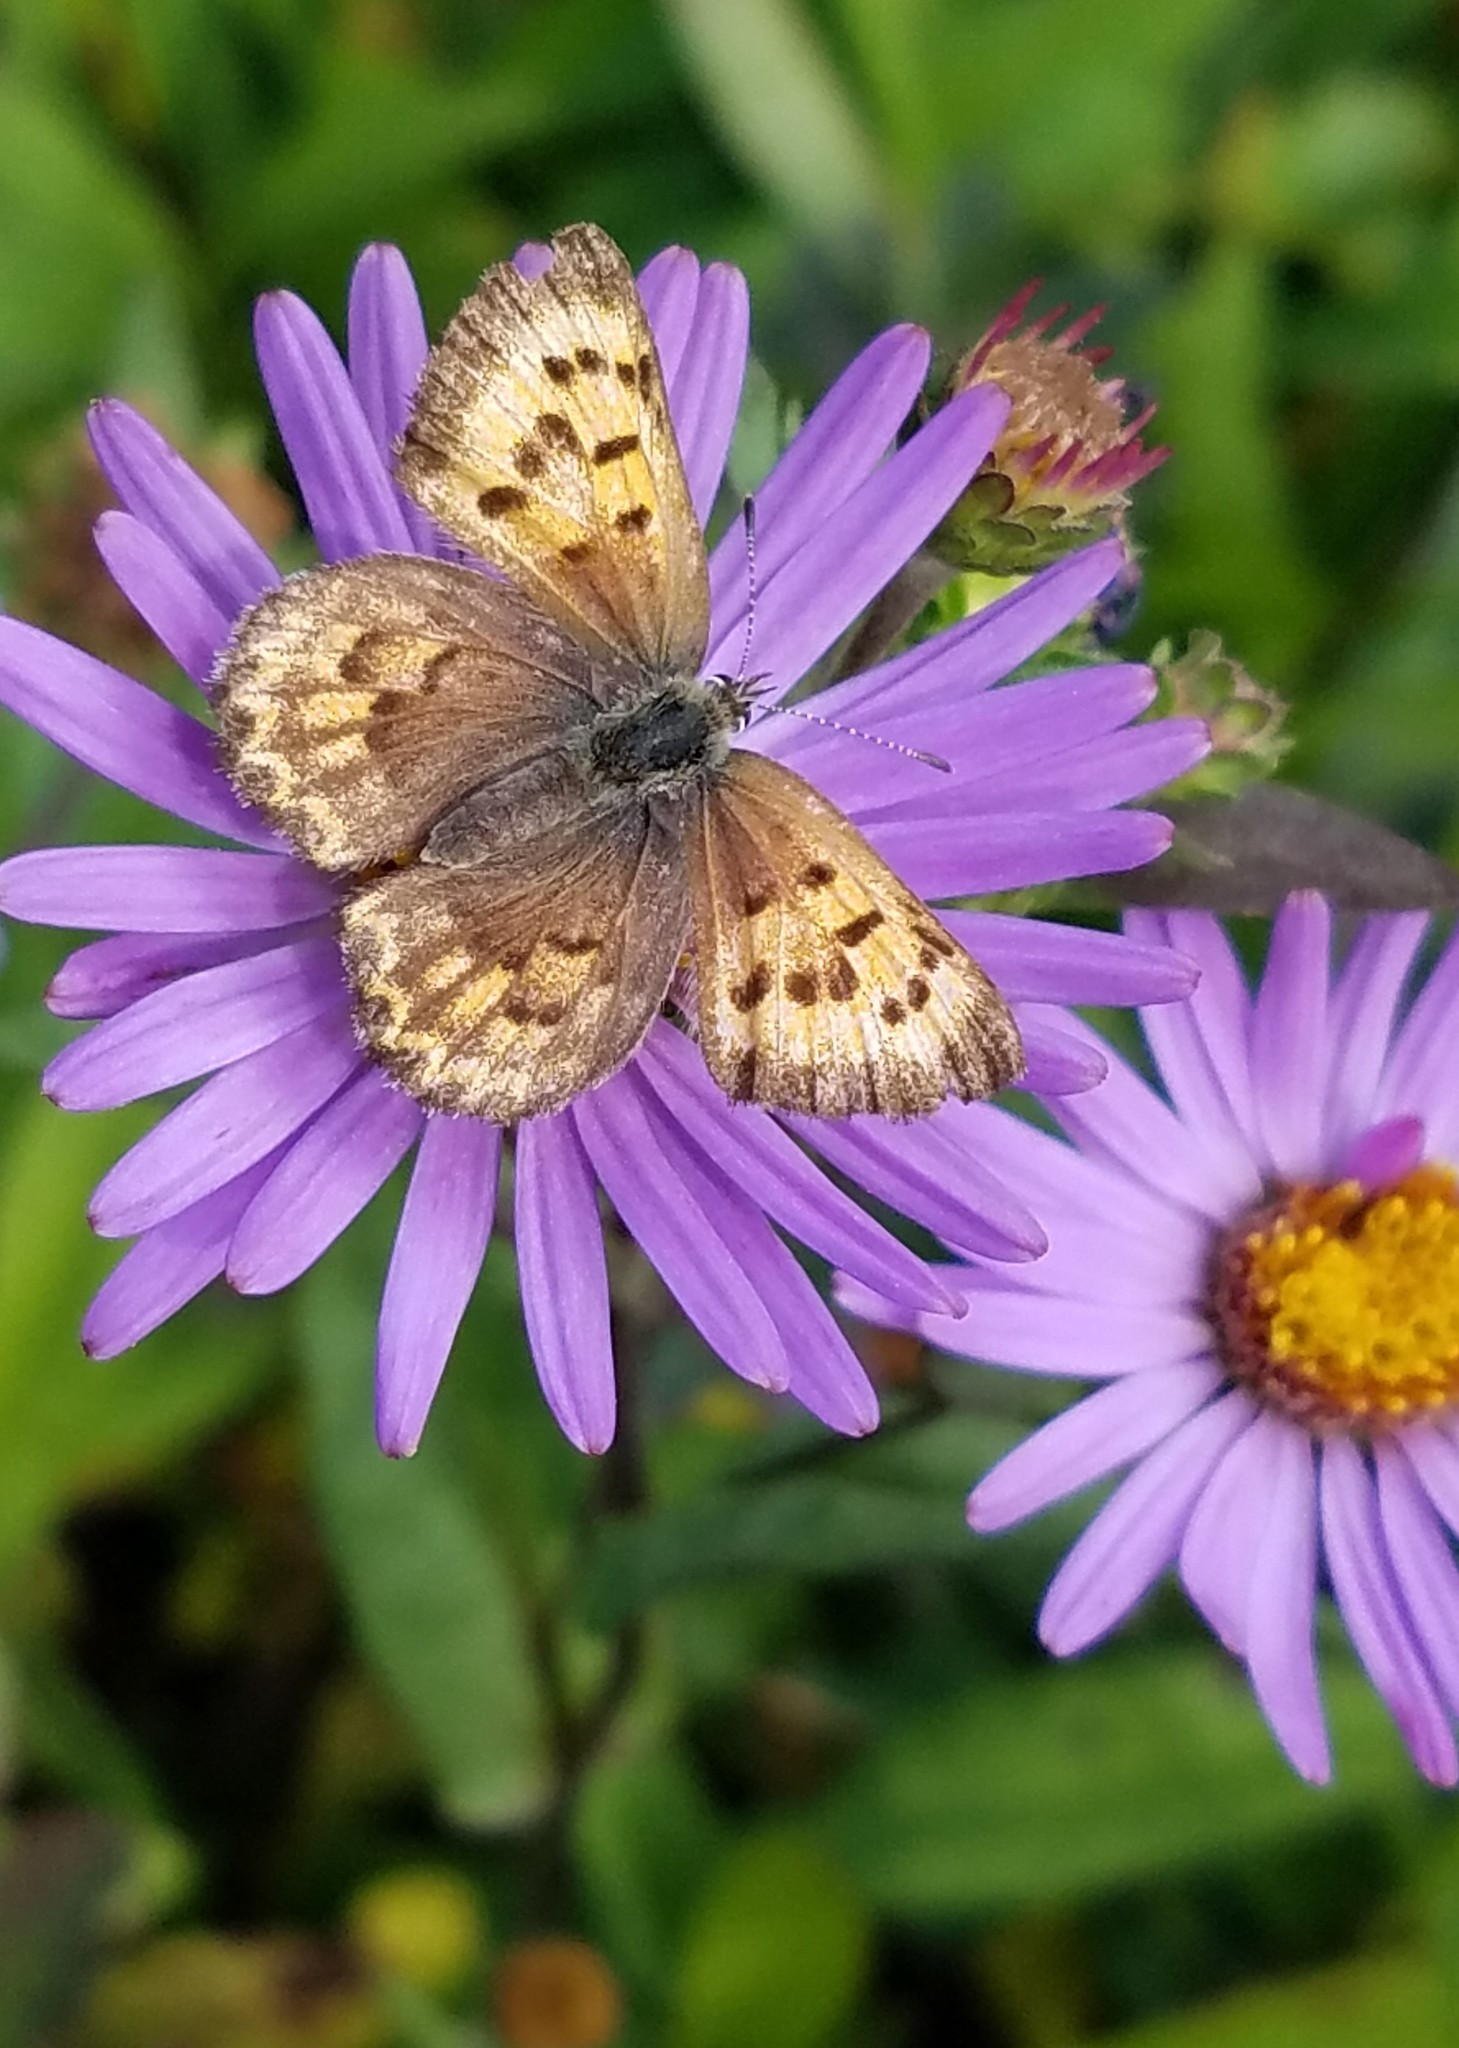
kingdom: Animalia
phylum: Arthropoda
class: Insecta
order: Lepidoptera
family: Lycaenidae
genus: Tharsalea
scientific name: Tharsalea mariposa
